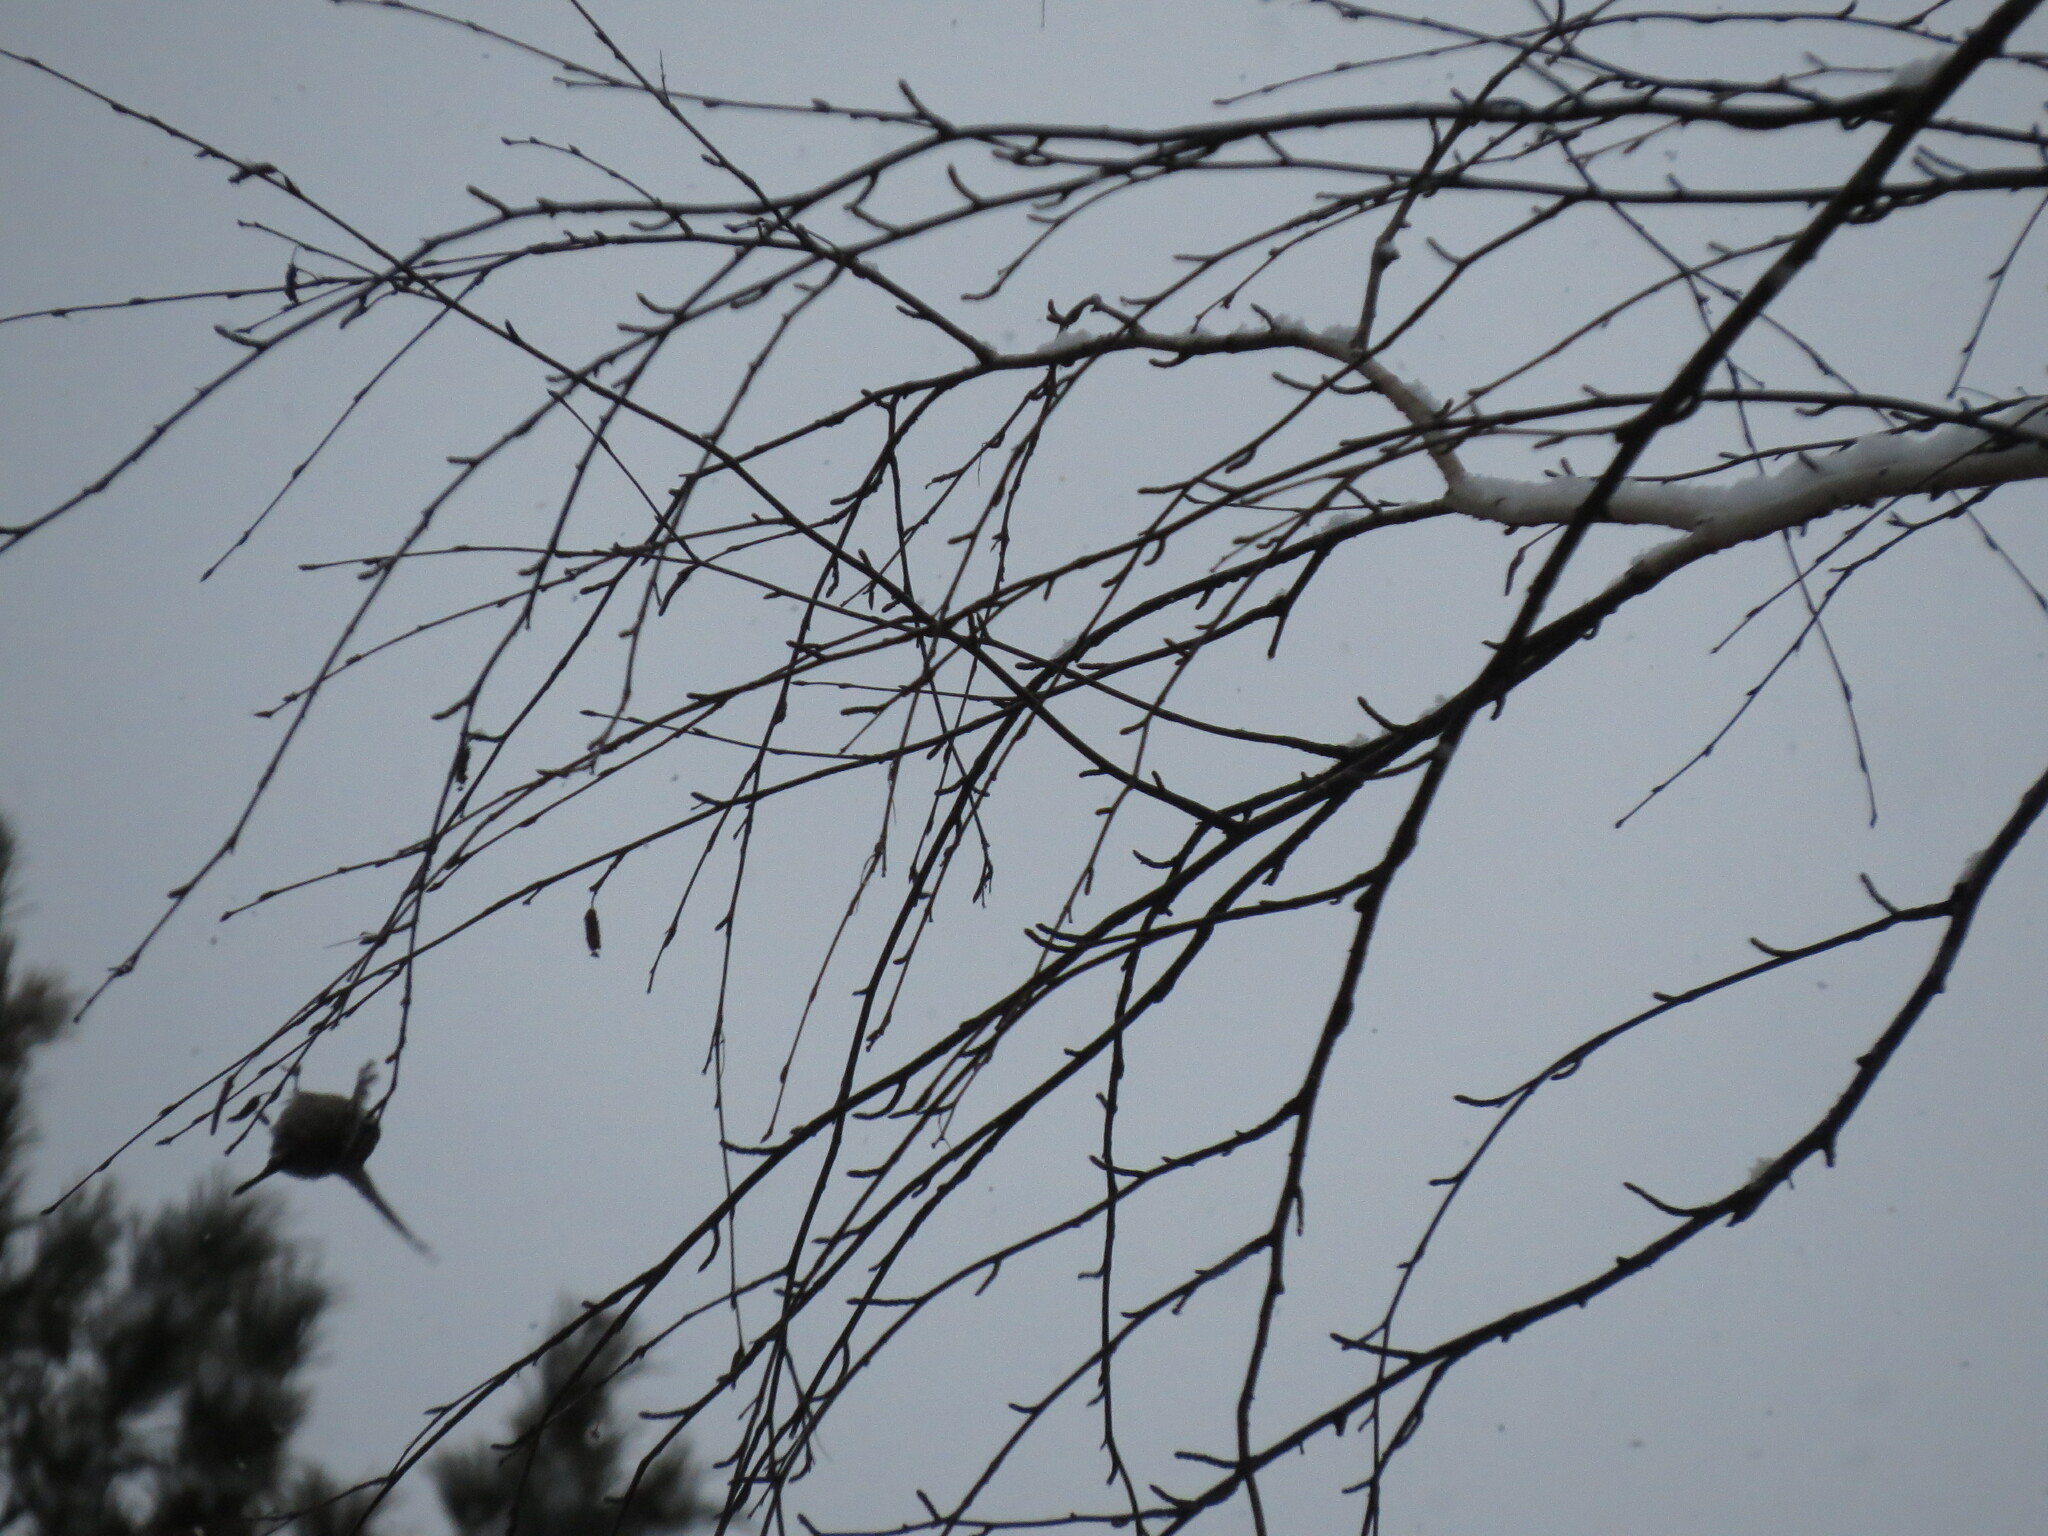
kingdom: Animalia
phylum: Chordata
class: Aves
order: Passeriformes
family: Paridae
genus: Periparus
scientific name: Periparus ater
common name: Coal tit
